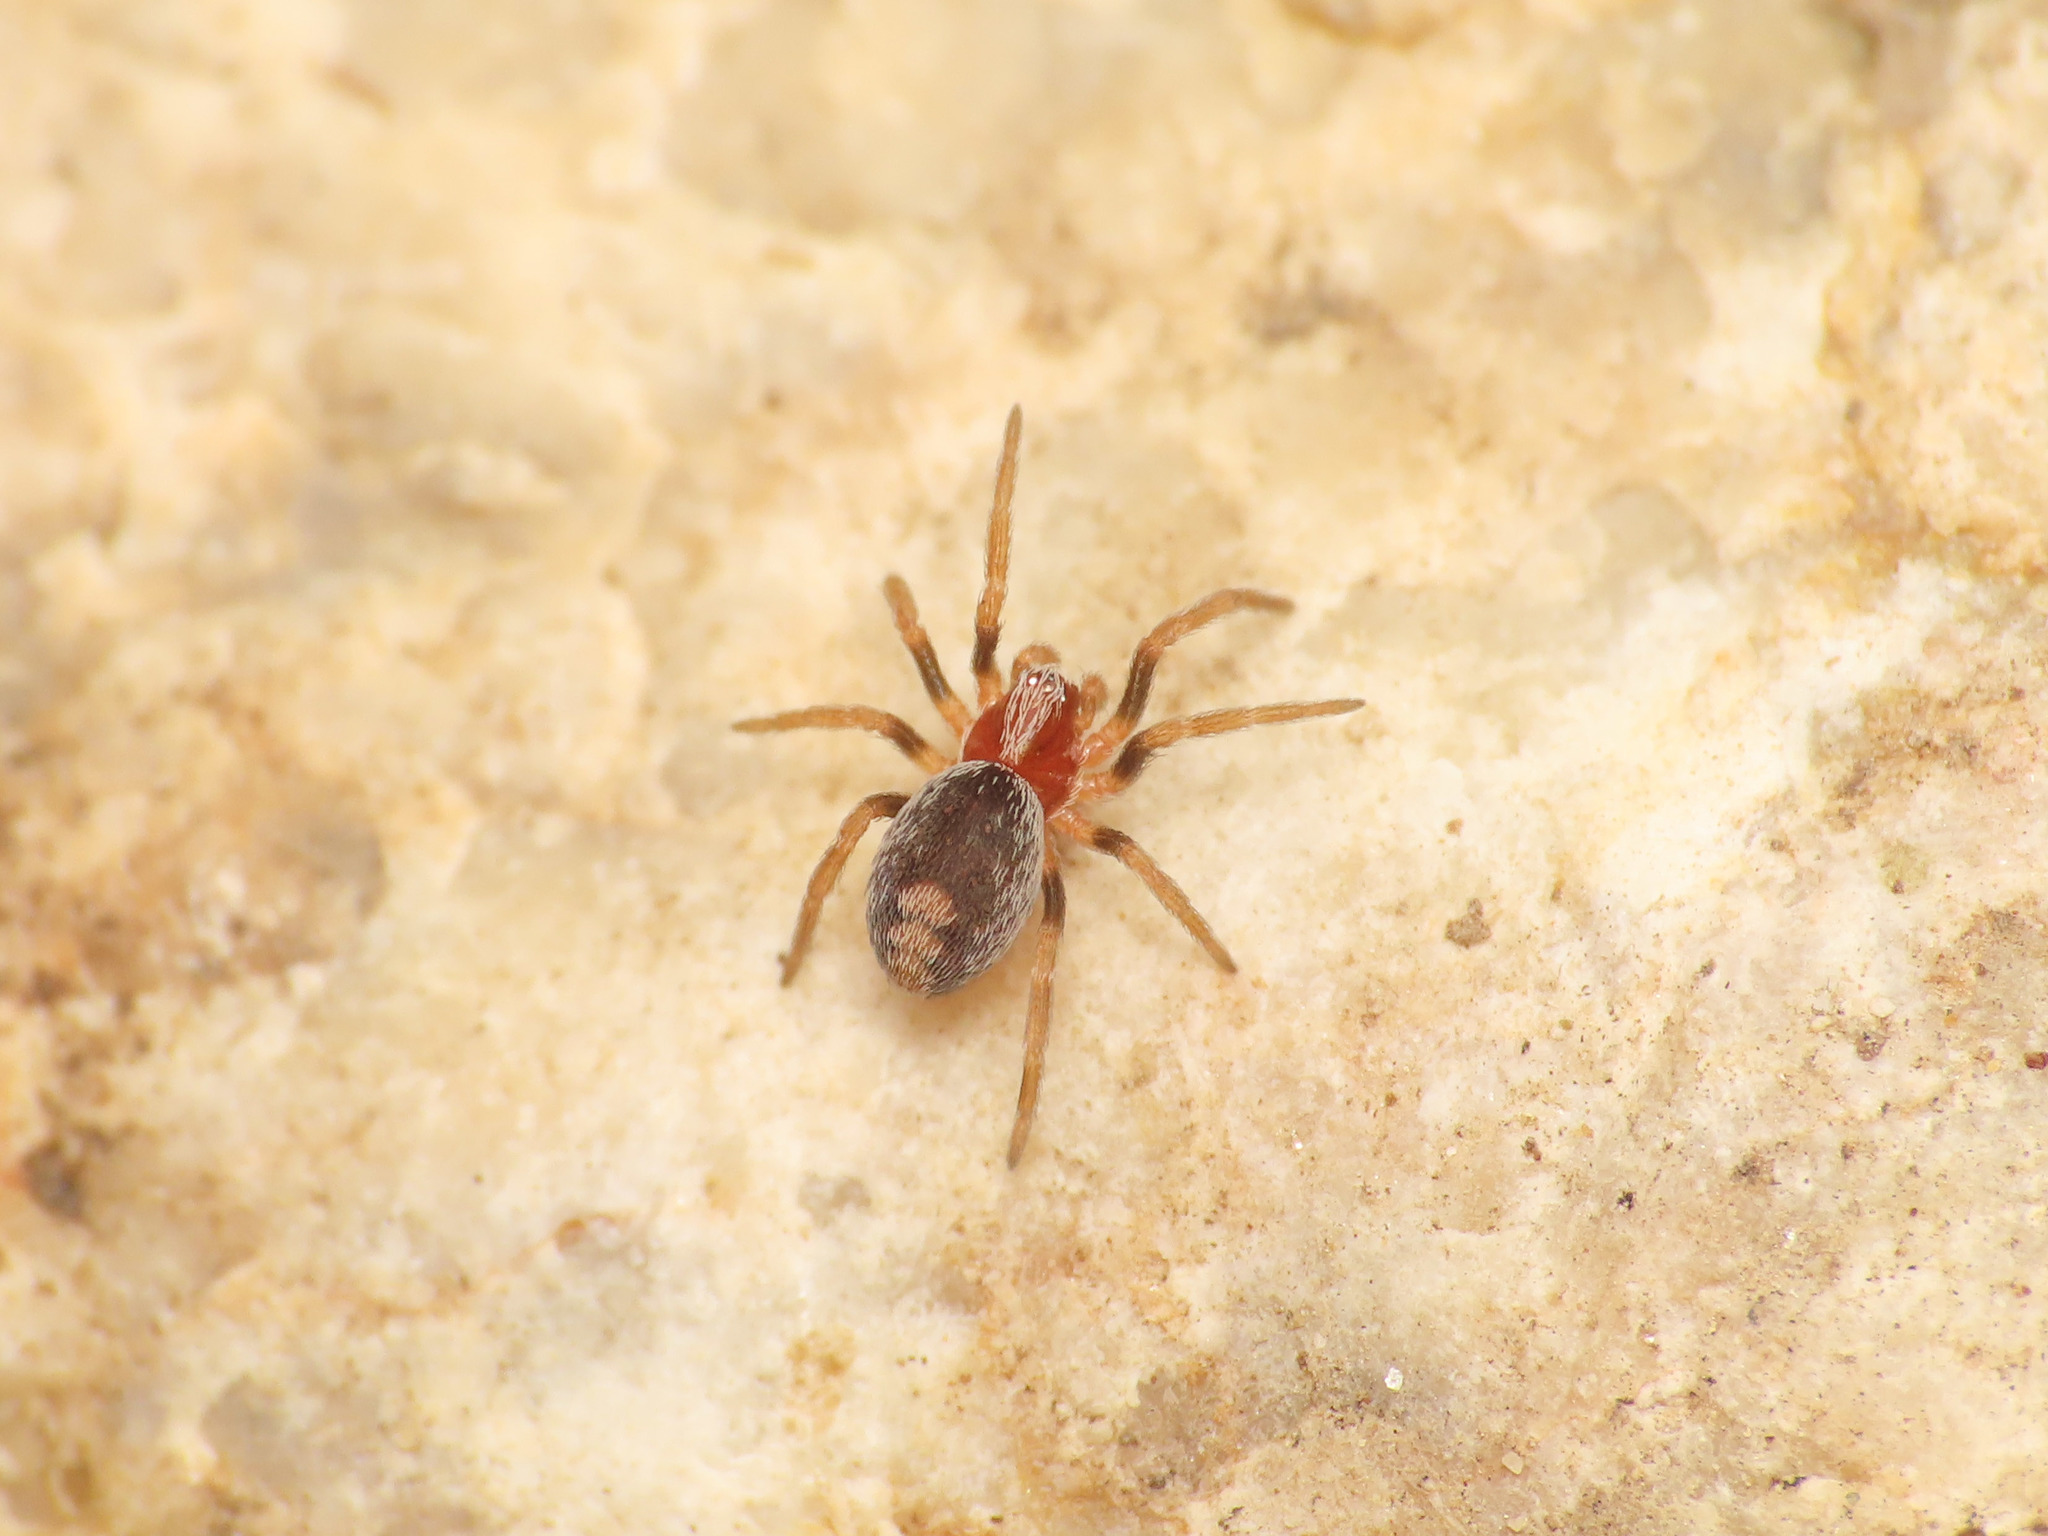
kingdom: Animalia
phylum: Arthropoda
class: Arachnida
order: Araneae
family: Dictynidae
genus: Marilynia
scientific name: Marilynia bicolor
